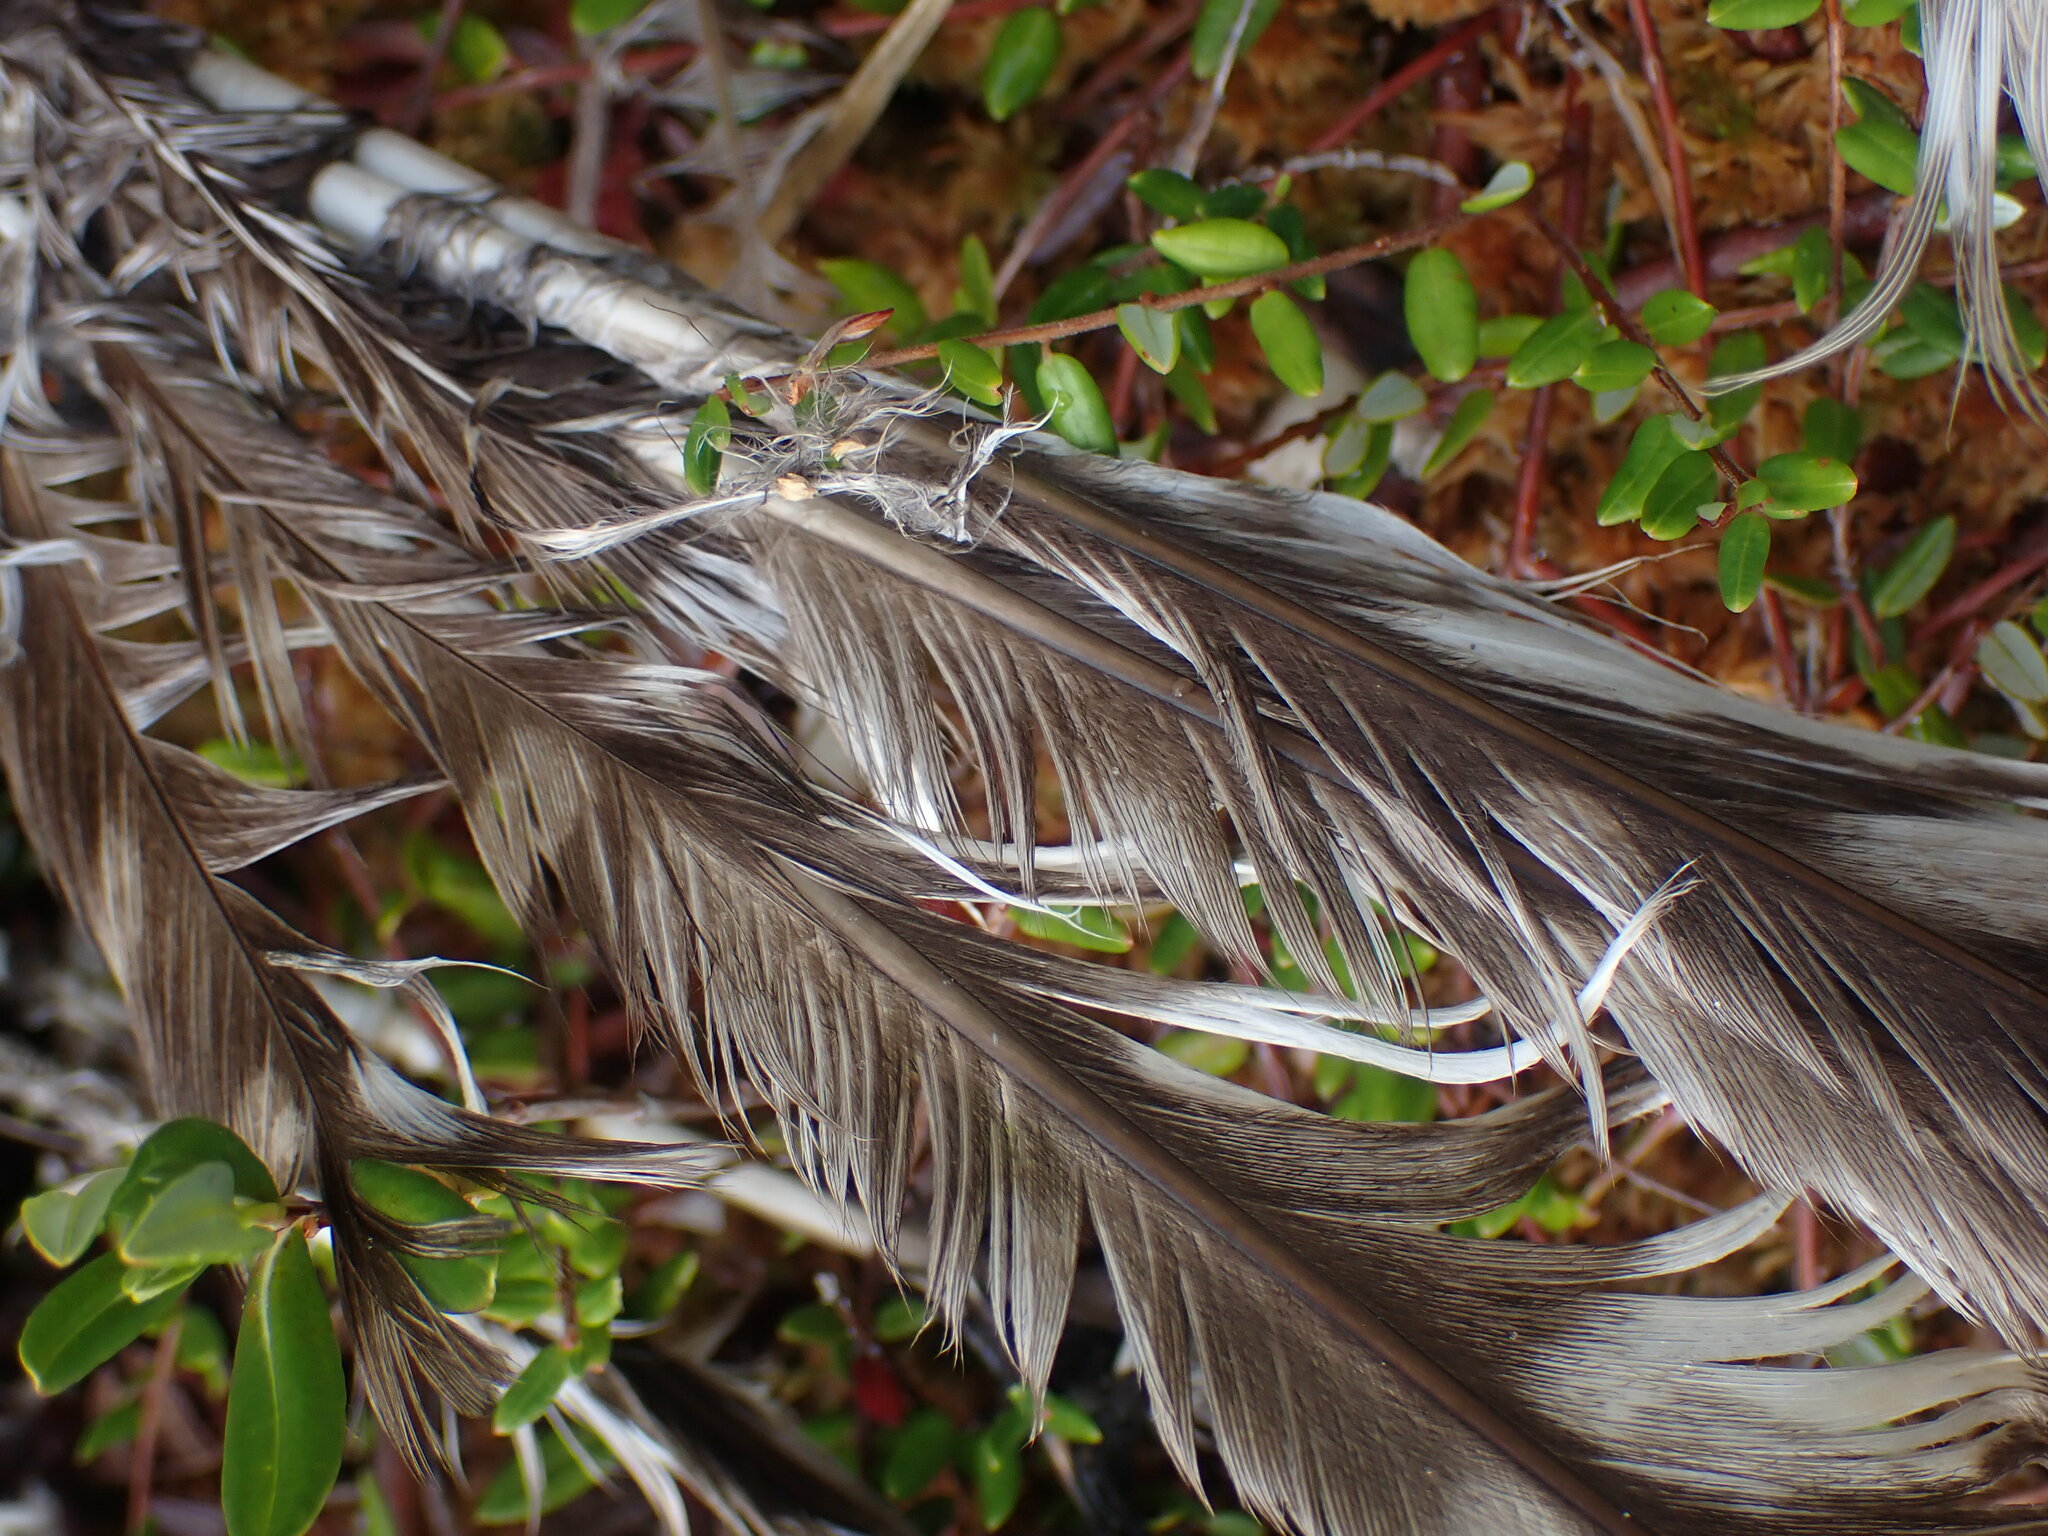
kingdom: Animalia
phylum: Chordata
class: Aves
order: Strigiformes
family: Strigidae
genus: Strix
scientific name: Strix varia
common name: Barred owl
